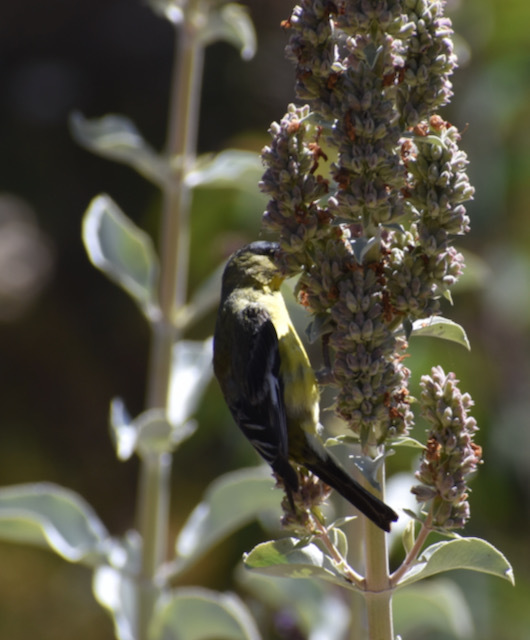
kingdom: Animalia
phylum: Chordata
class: Aves
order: Passeriformes
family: Fringillidae
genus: Spinus
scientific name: Spinus psaltria
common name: Lesser goldfinch
